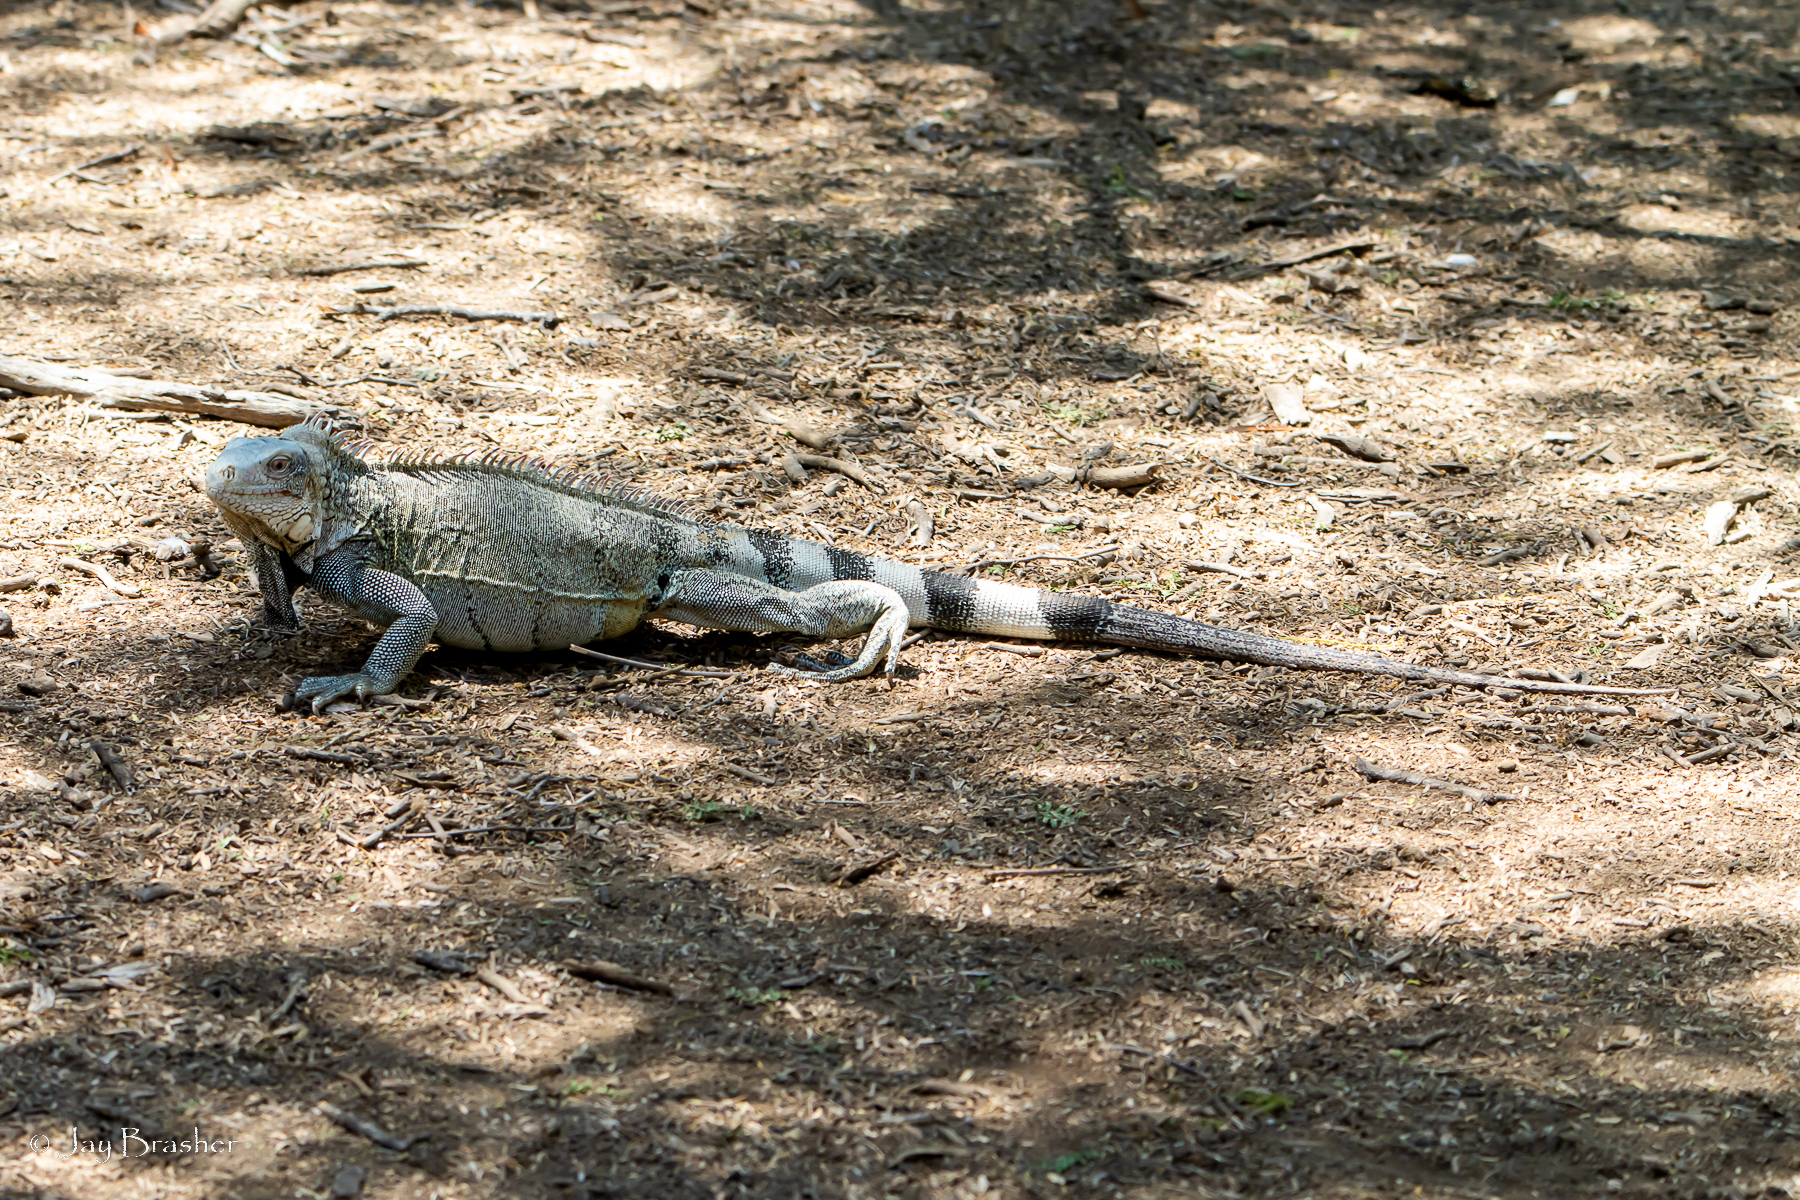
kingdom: Animalia
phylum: Chordata
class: Squamata
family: Iguanidae
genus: Iguana
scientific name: Iguana iguana
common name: Green iguana
